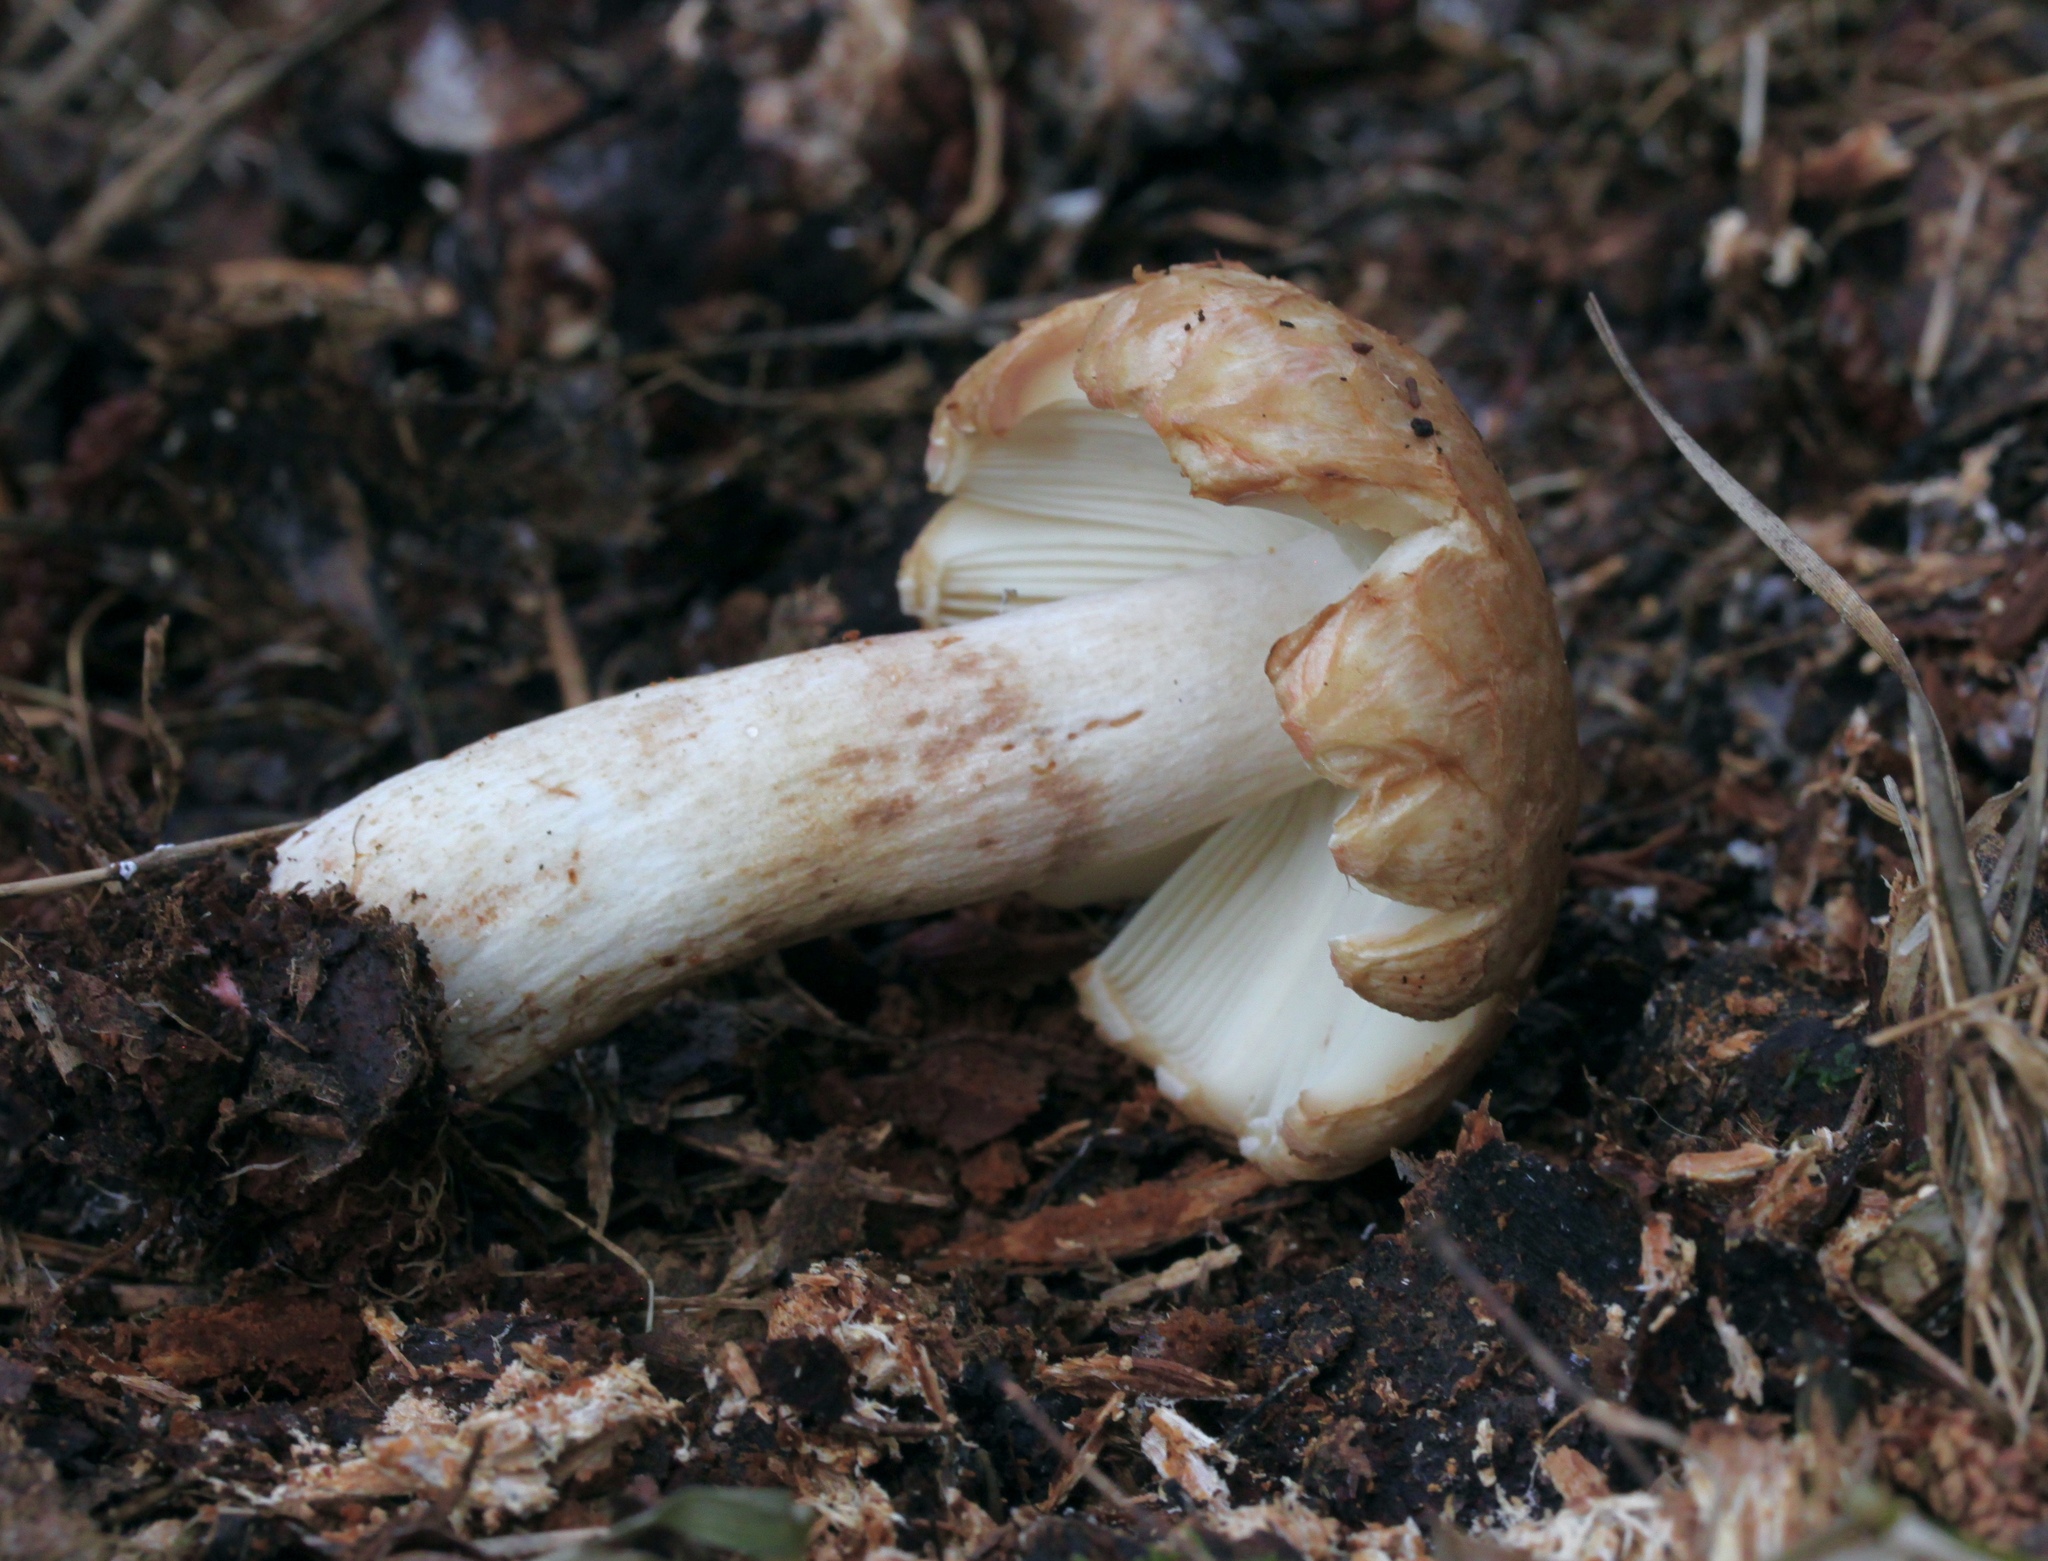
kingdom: Fungi
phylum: Basidiomycota
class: Agaricomycetes
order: Russulales
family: Russulaceae
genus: Russula
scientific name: Russula ventricosipes
